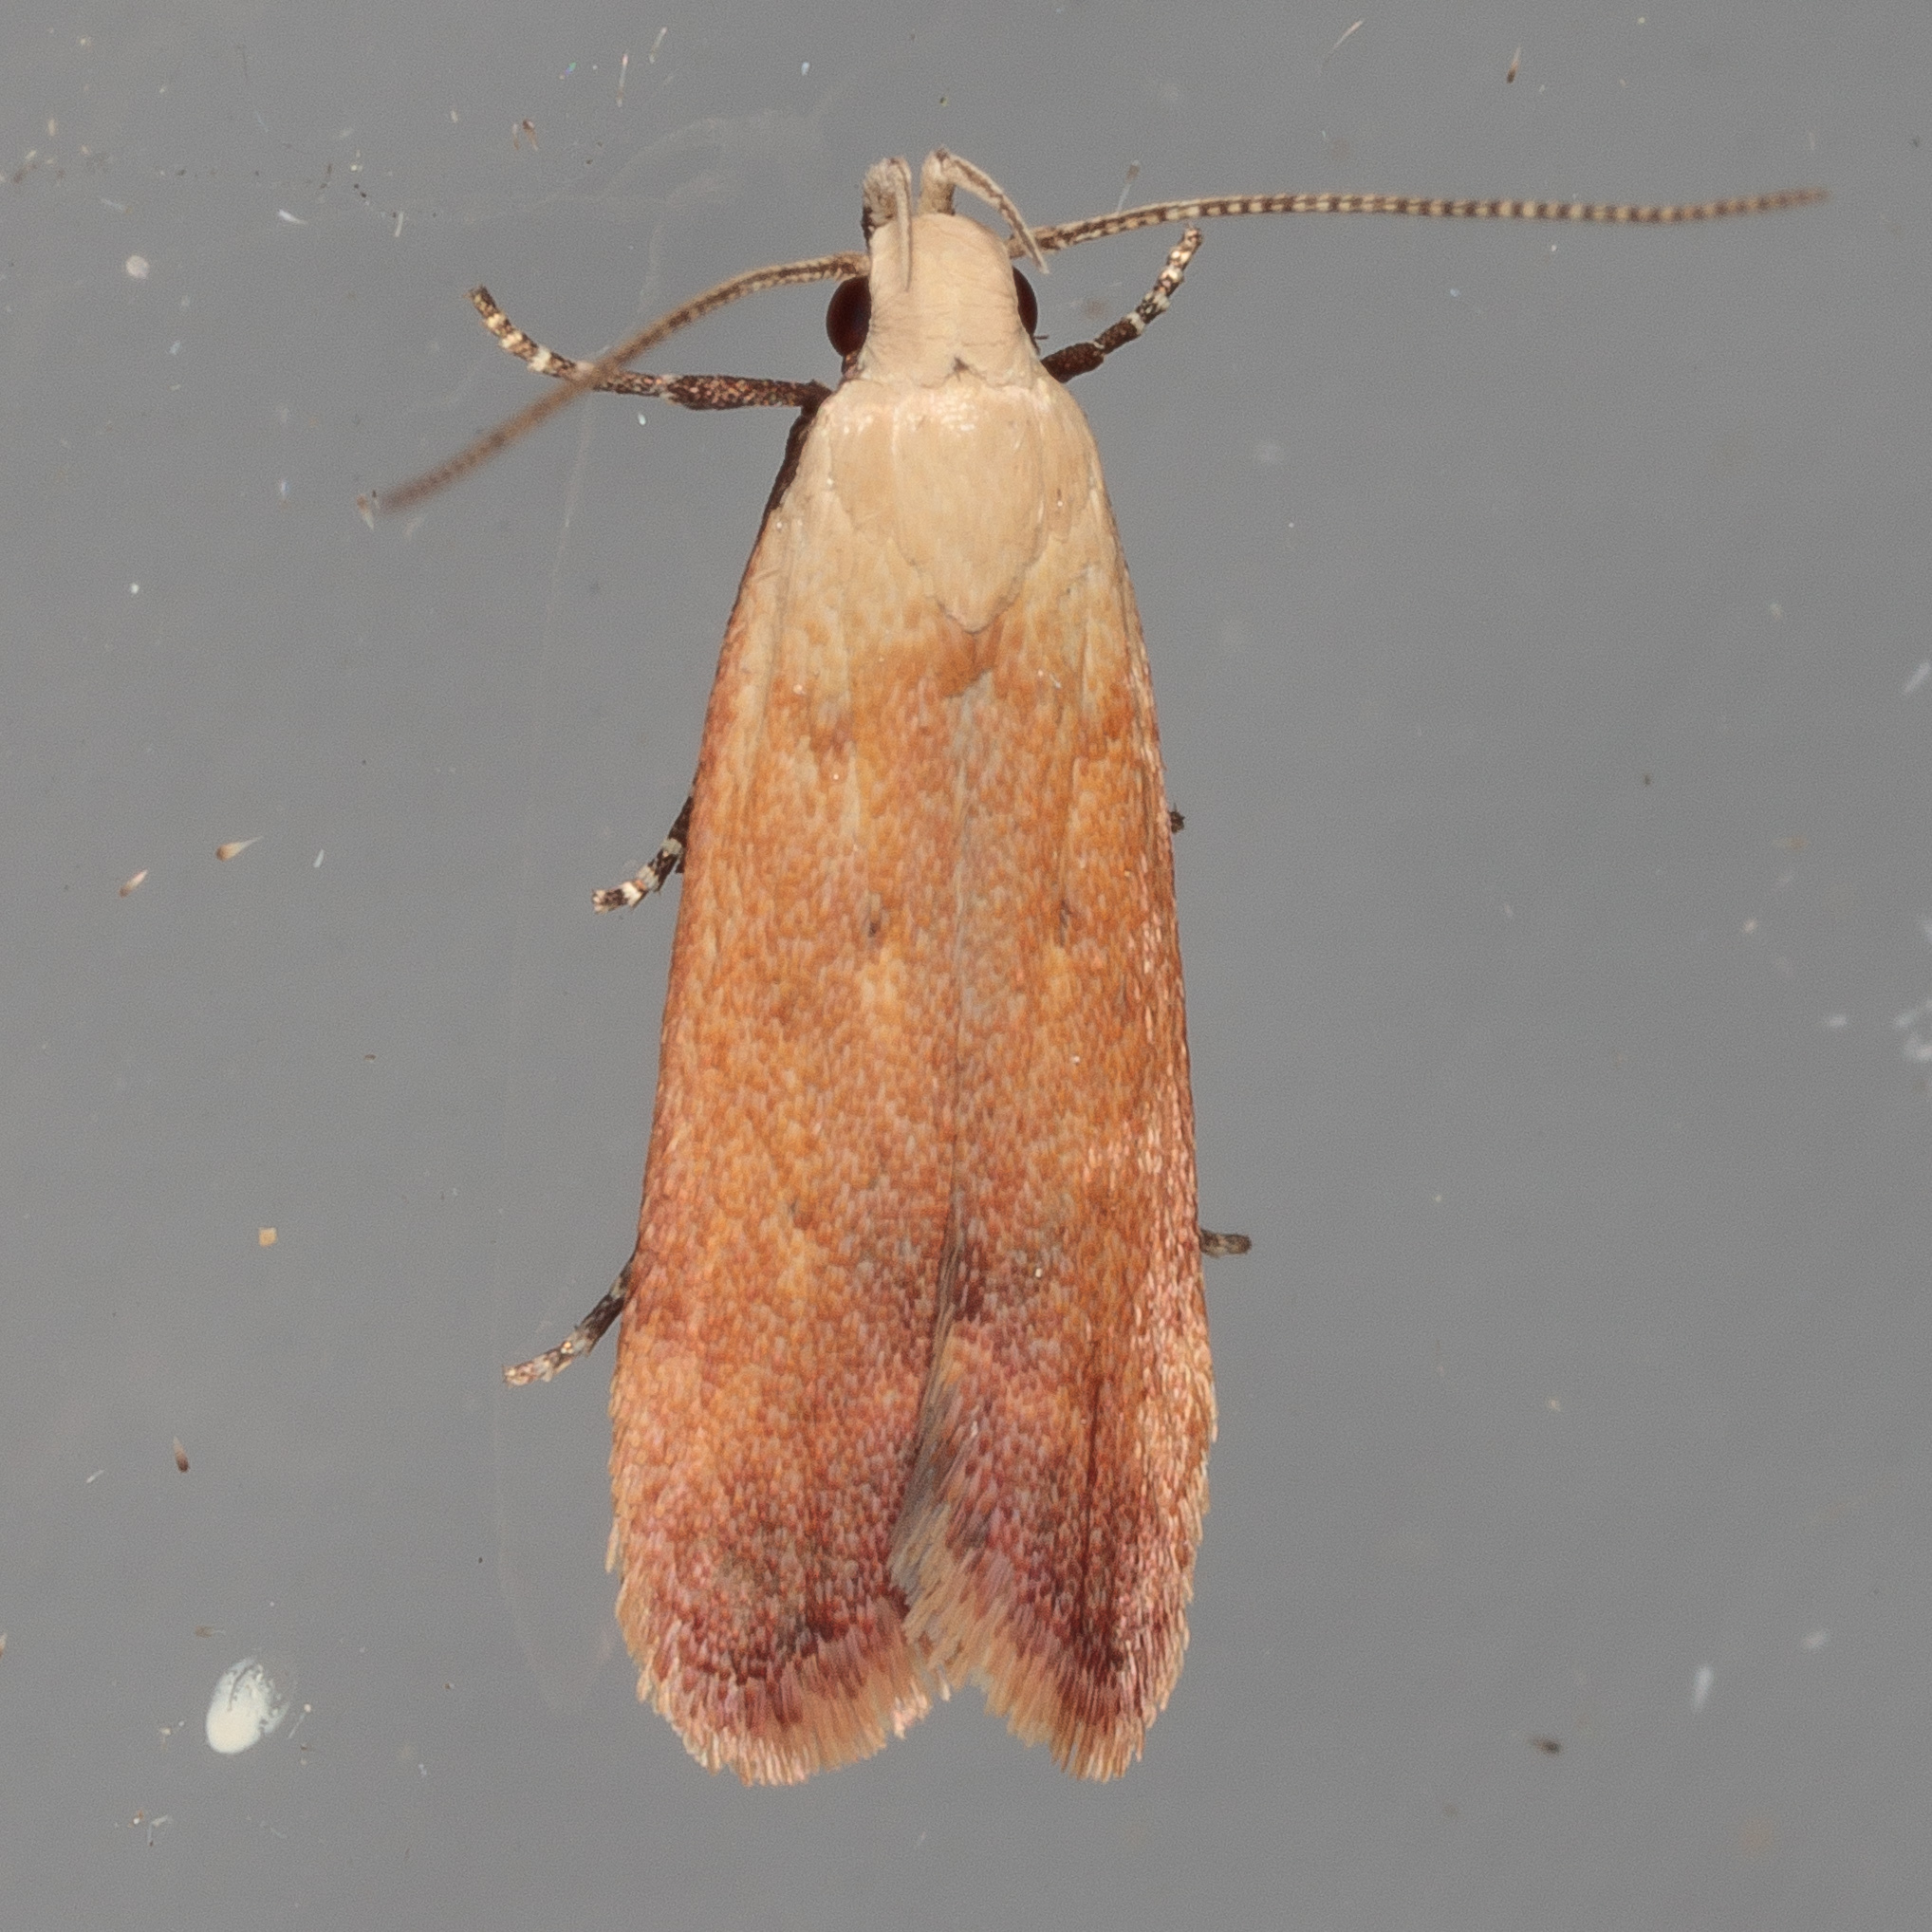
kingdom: Animalia
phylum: Arthropoda
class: Insecta
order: Lepidoptera
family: Gelechiidae
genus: Anacampsis
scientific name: Anacampsis fullonella
